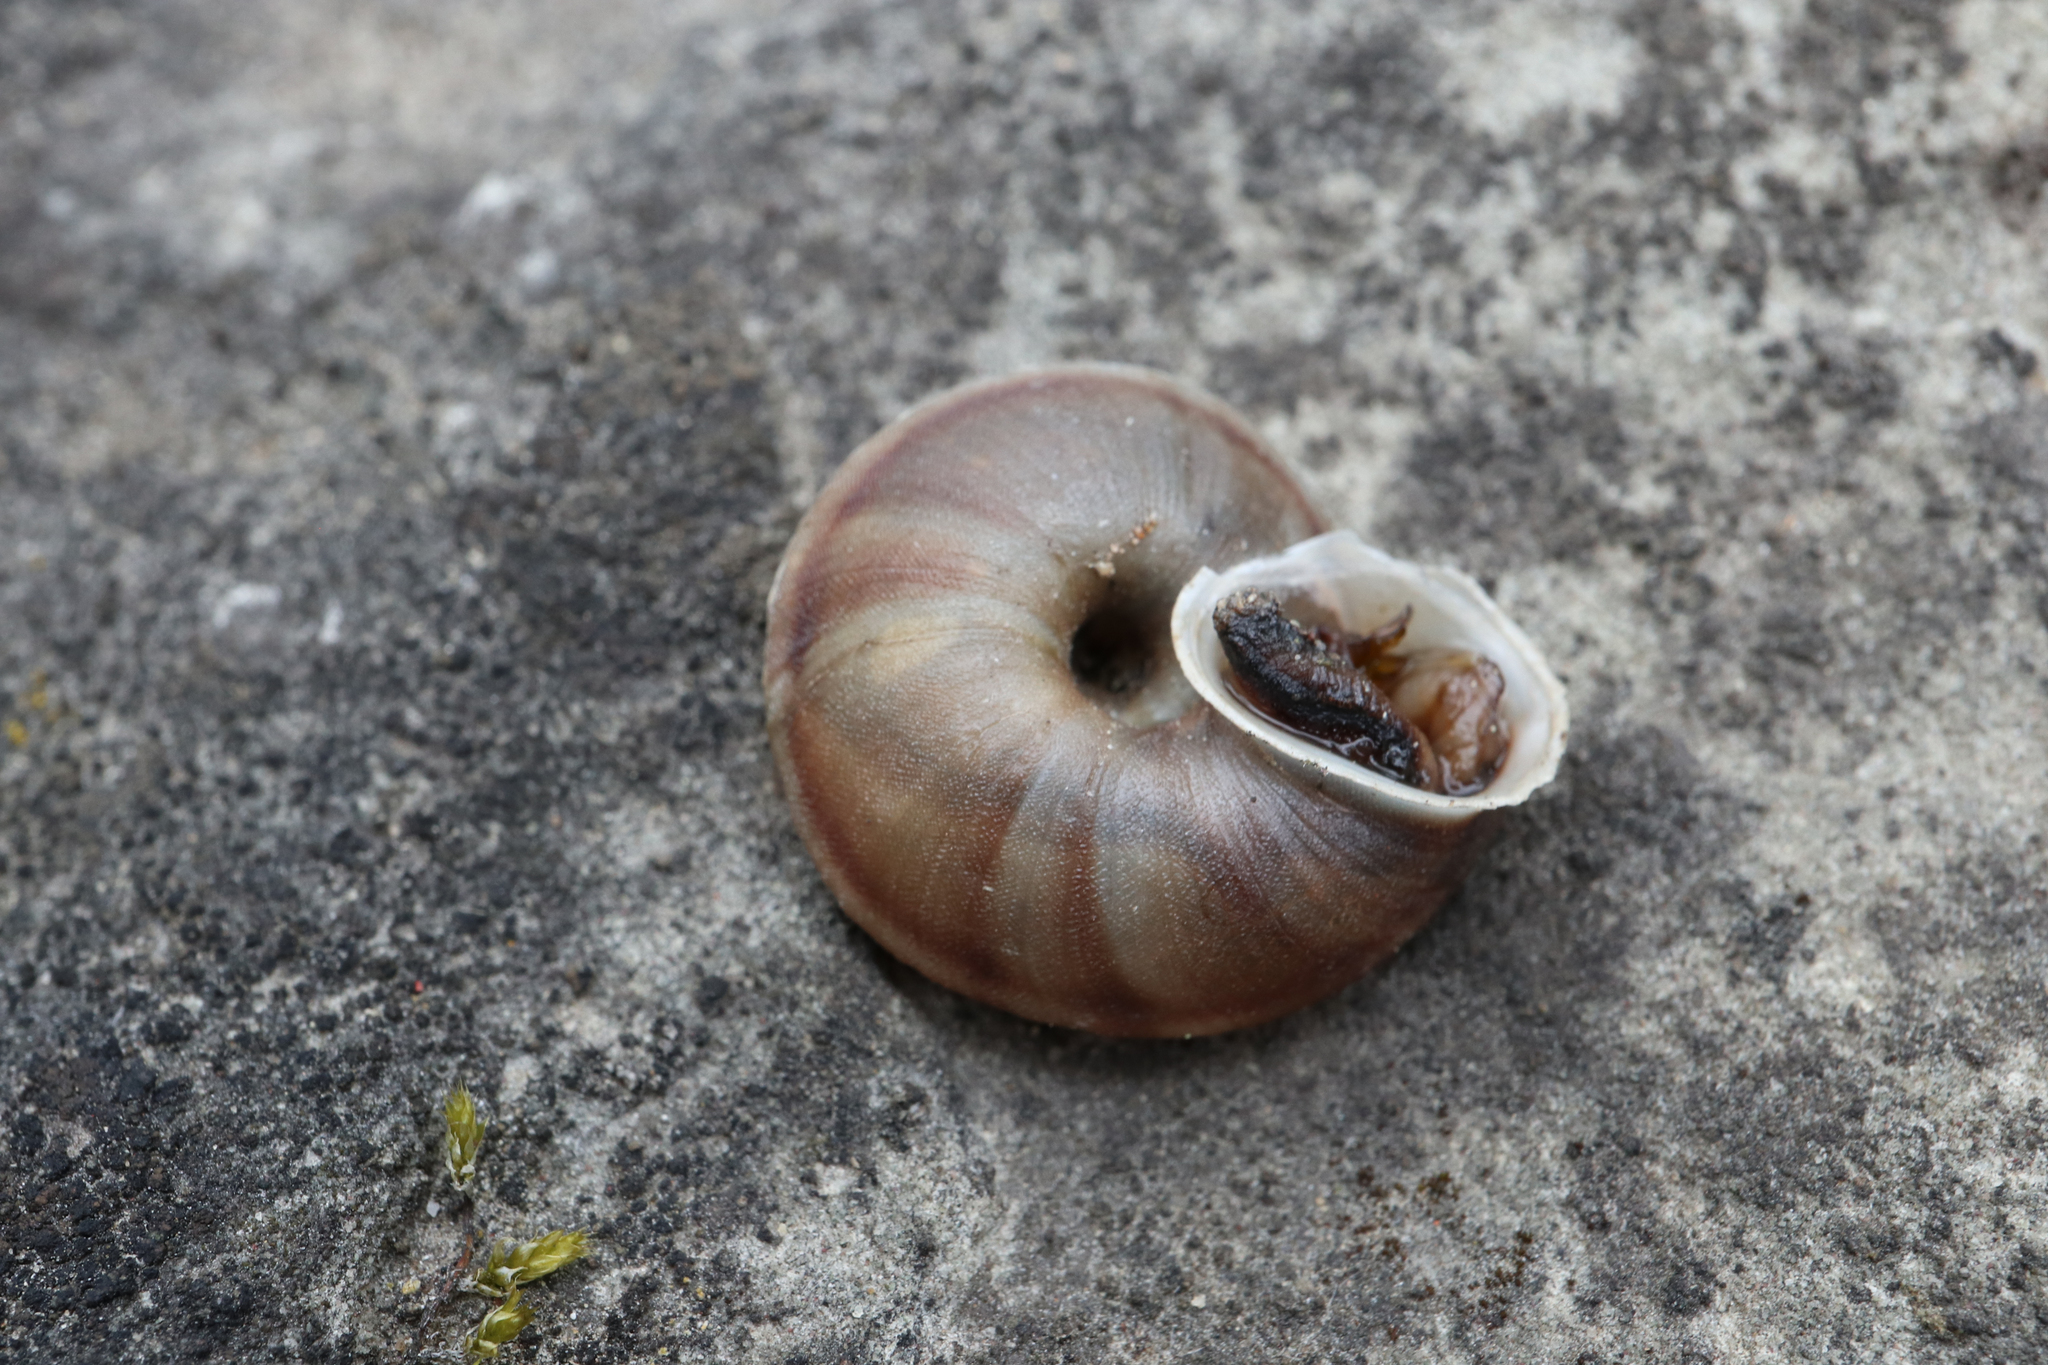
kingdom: Animalia
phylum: Mollusca
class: Gastropoda
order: Stylommatophora
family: Helicidae
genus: Helicigona
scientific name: Helicigona lapicida
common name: Lapidary snail
